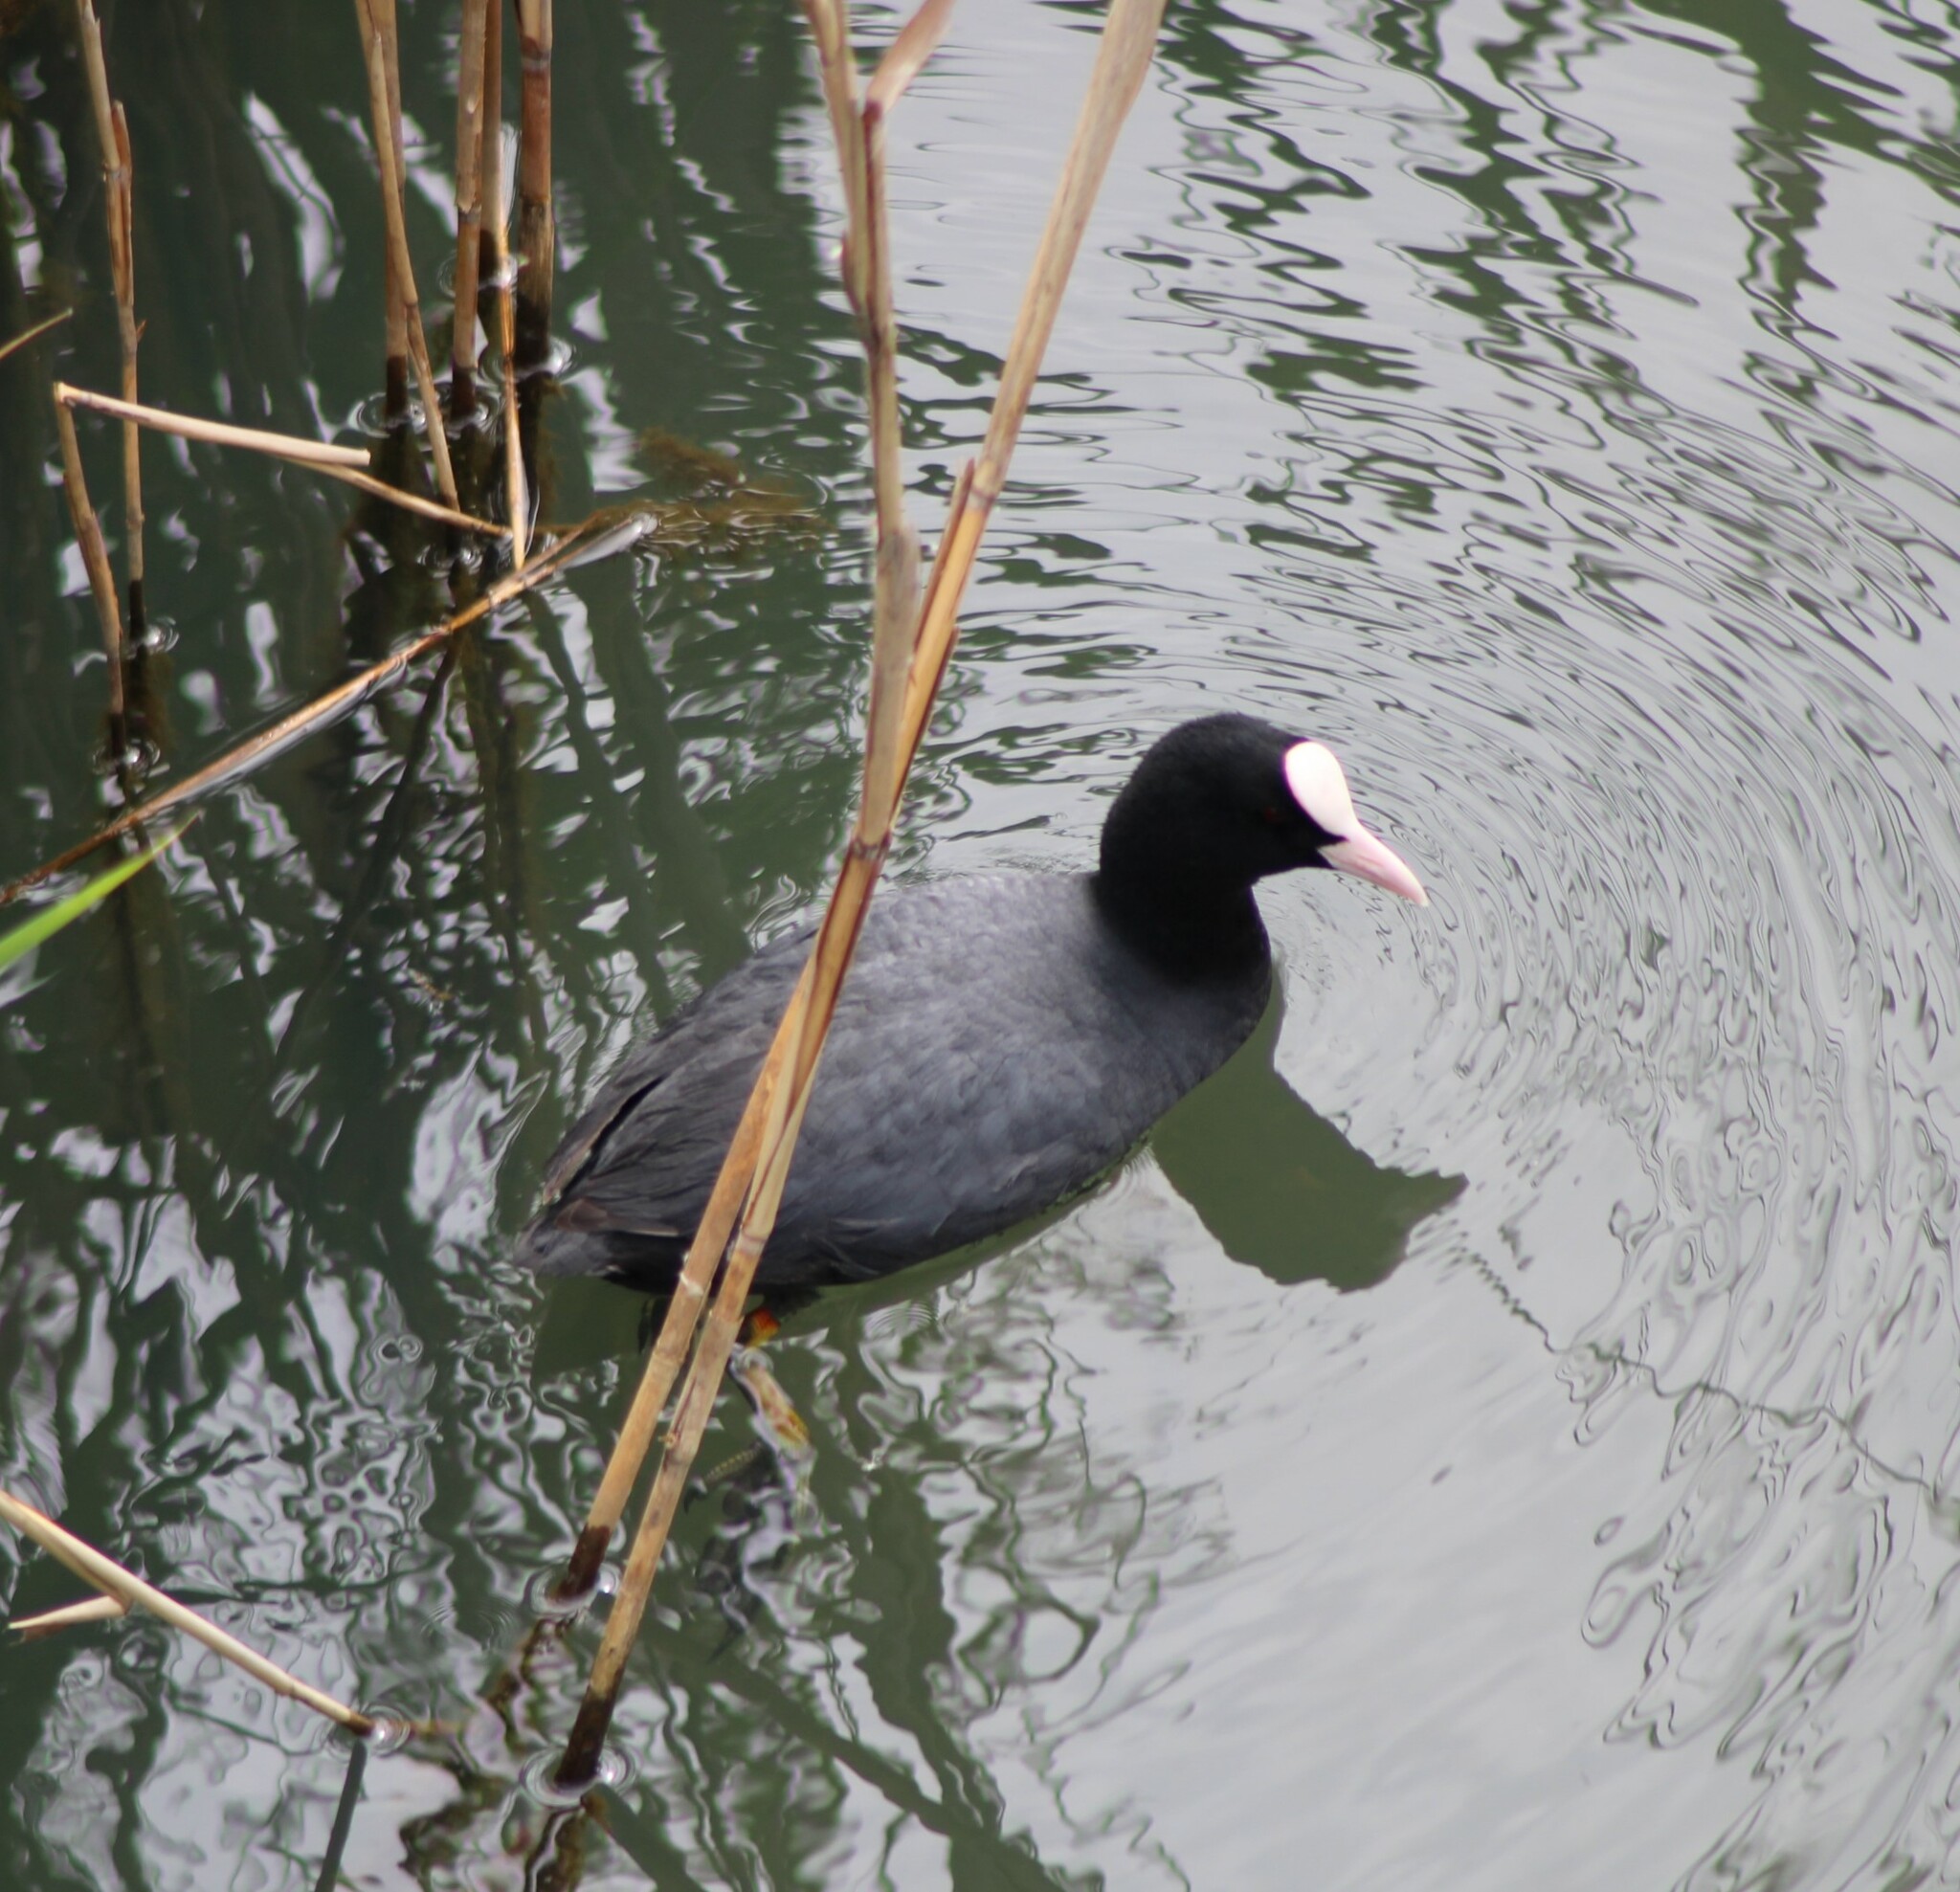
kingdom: Animalia
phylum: Chordata
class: Aves
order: Gruiformes
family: Rallidae
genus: Fulica
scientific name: Fulica atra
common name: Eurasian coot
